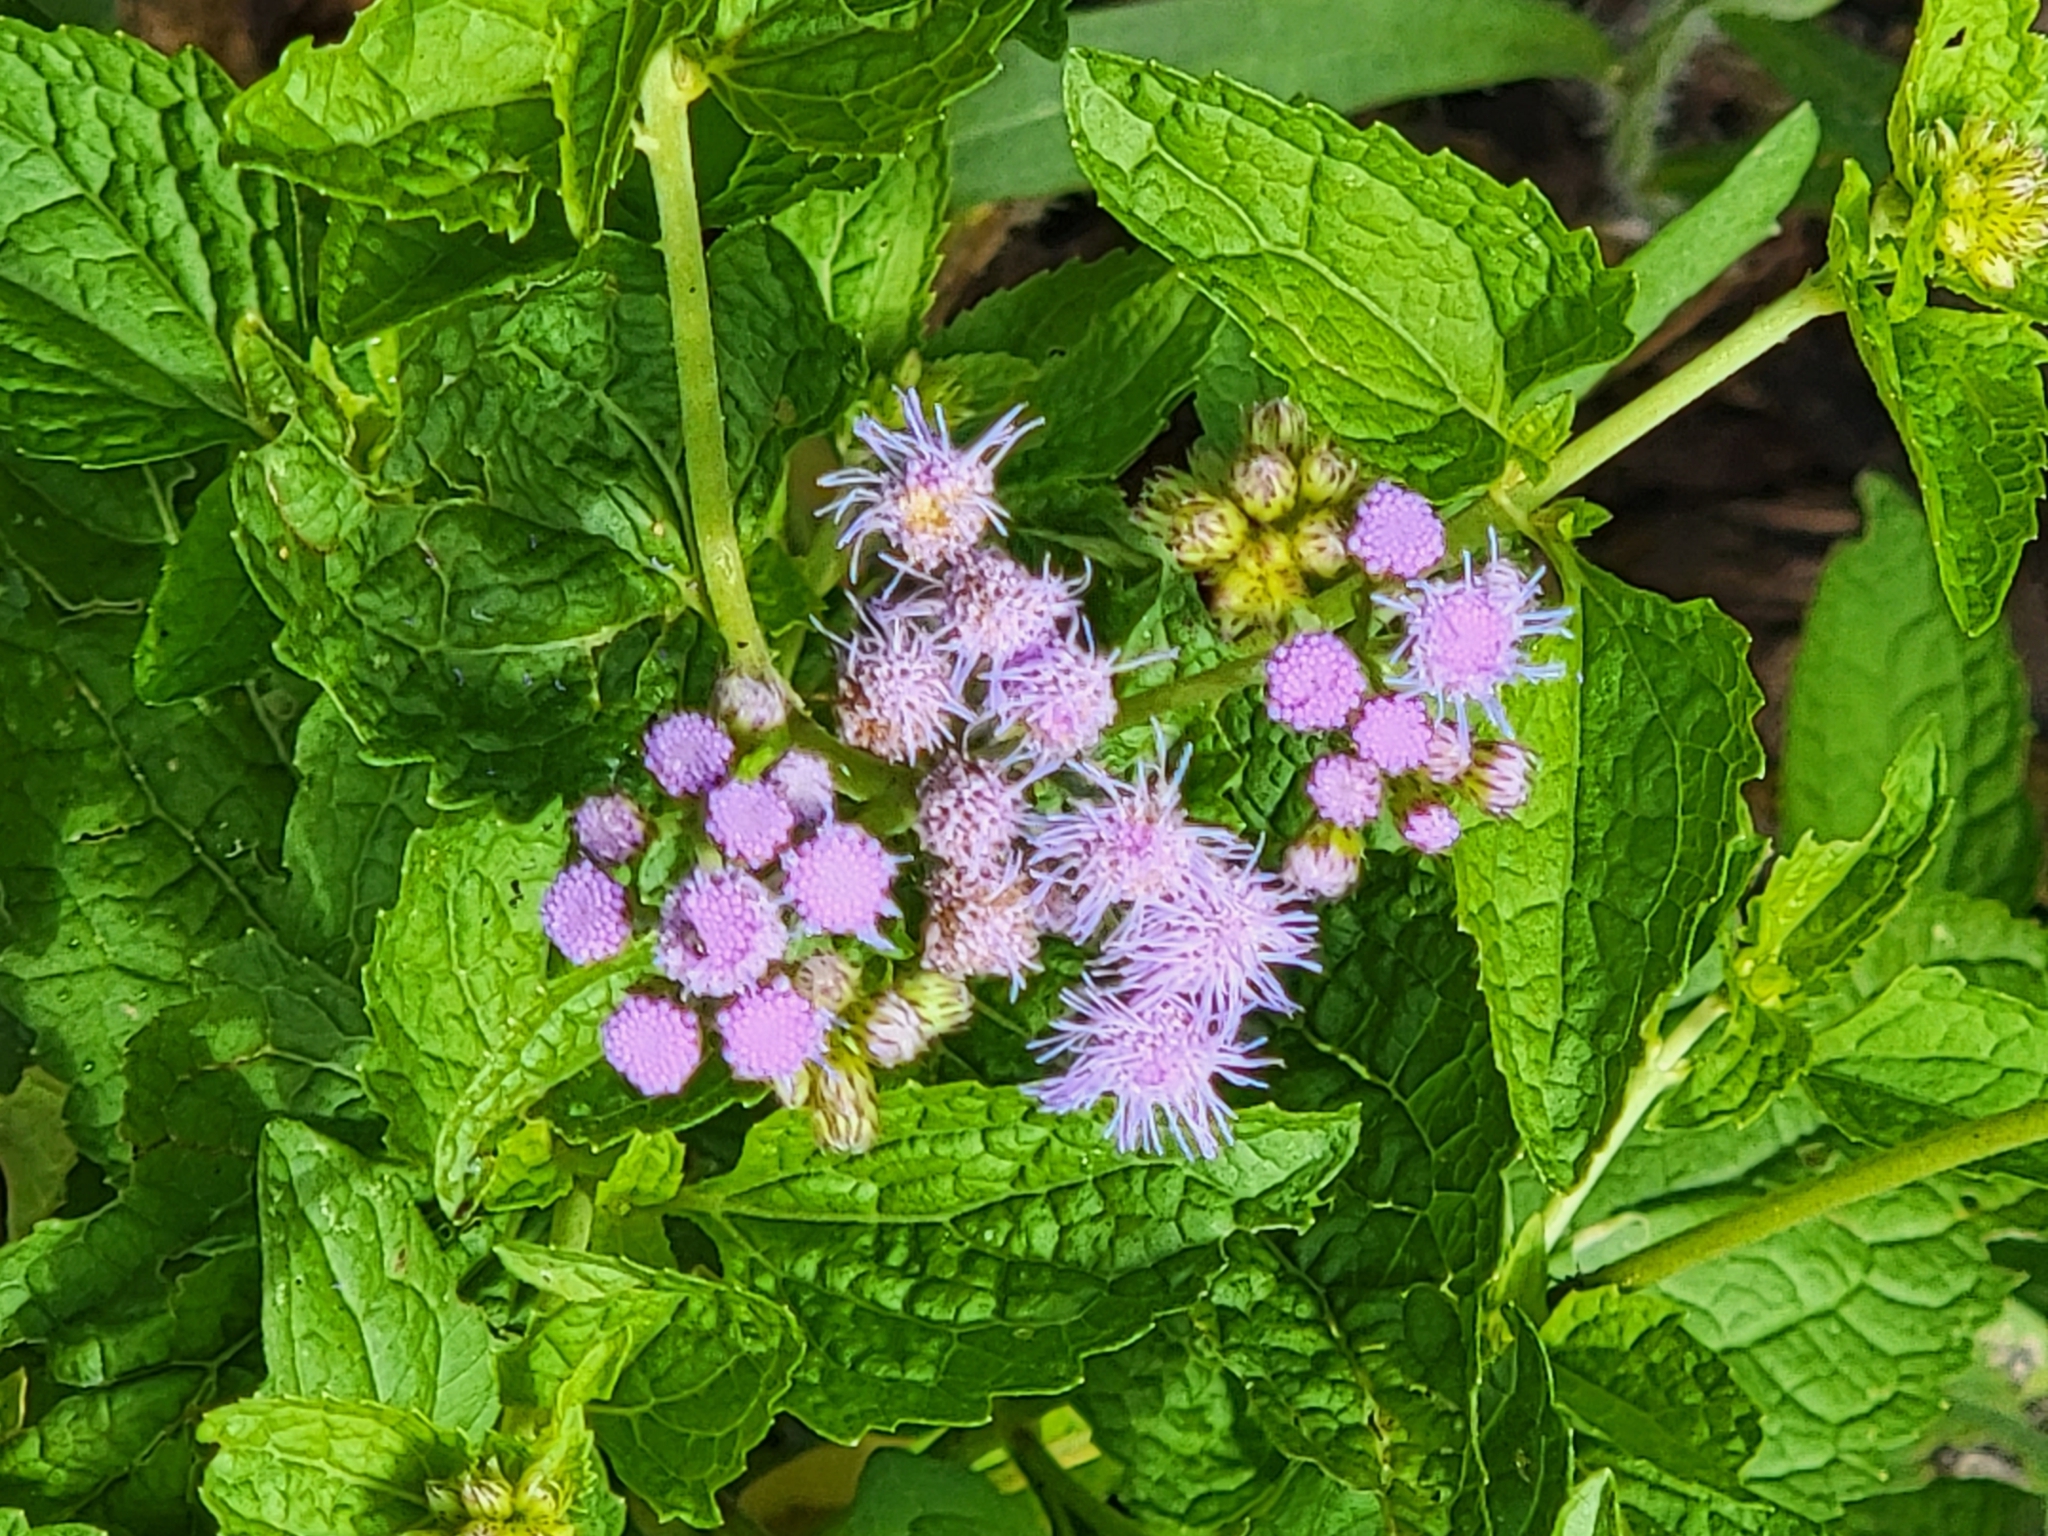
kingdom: Plantae
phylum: Tracheophyta
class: Magnoliopsida
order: Asterales
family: Asteraceae
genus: Conoclinium
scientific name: Conoclinium coelestinum
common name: Blue mistflower
